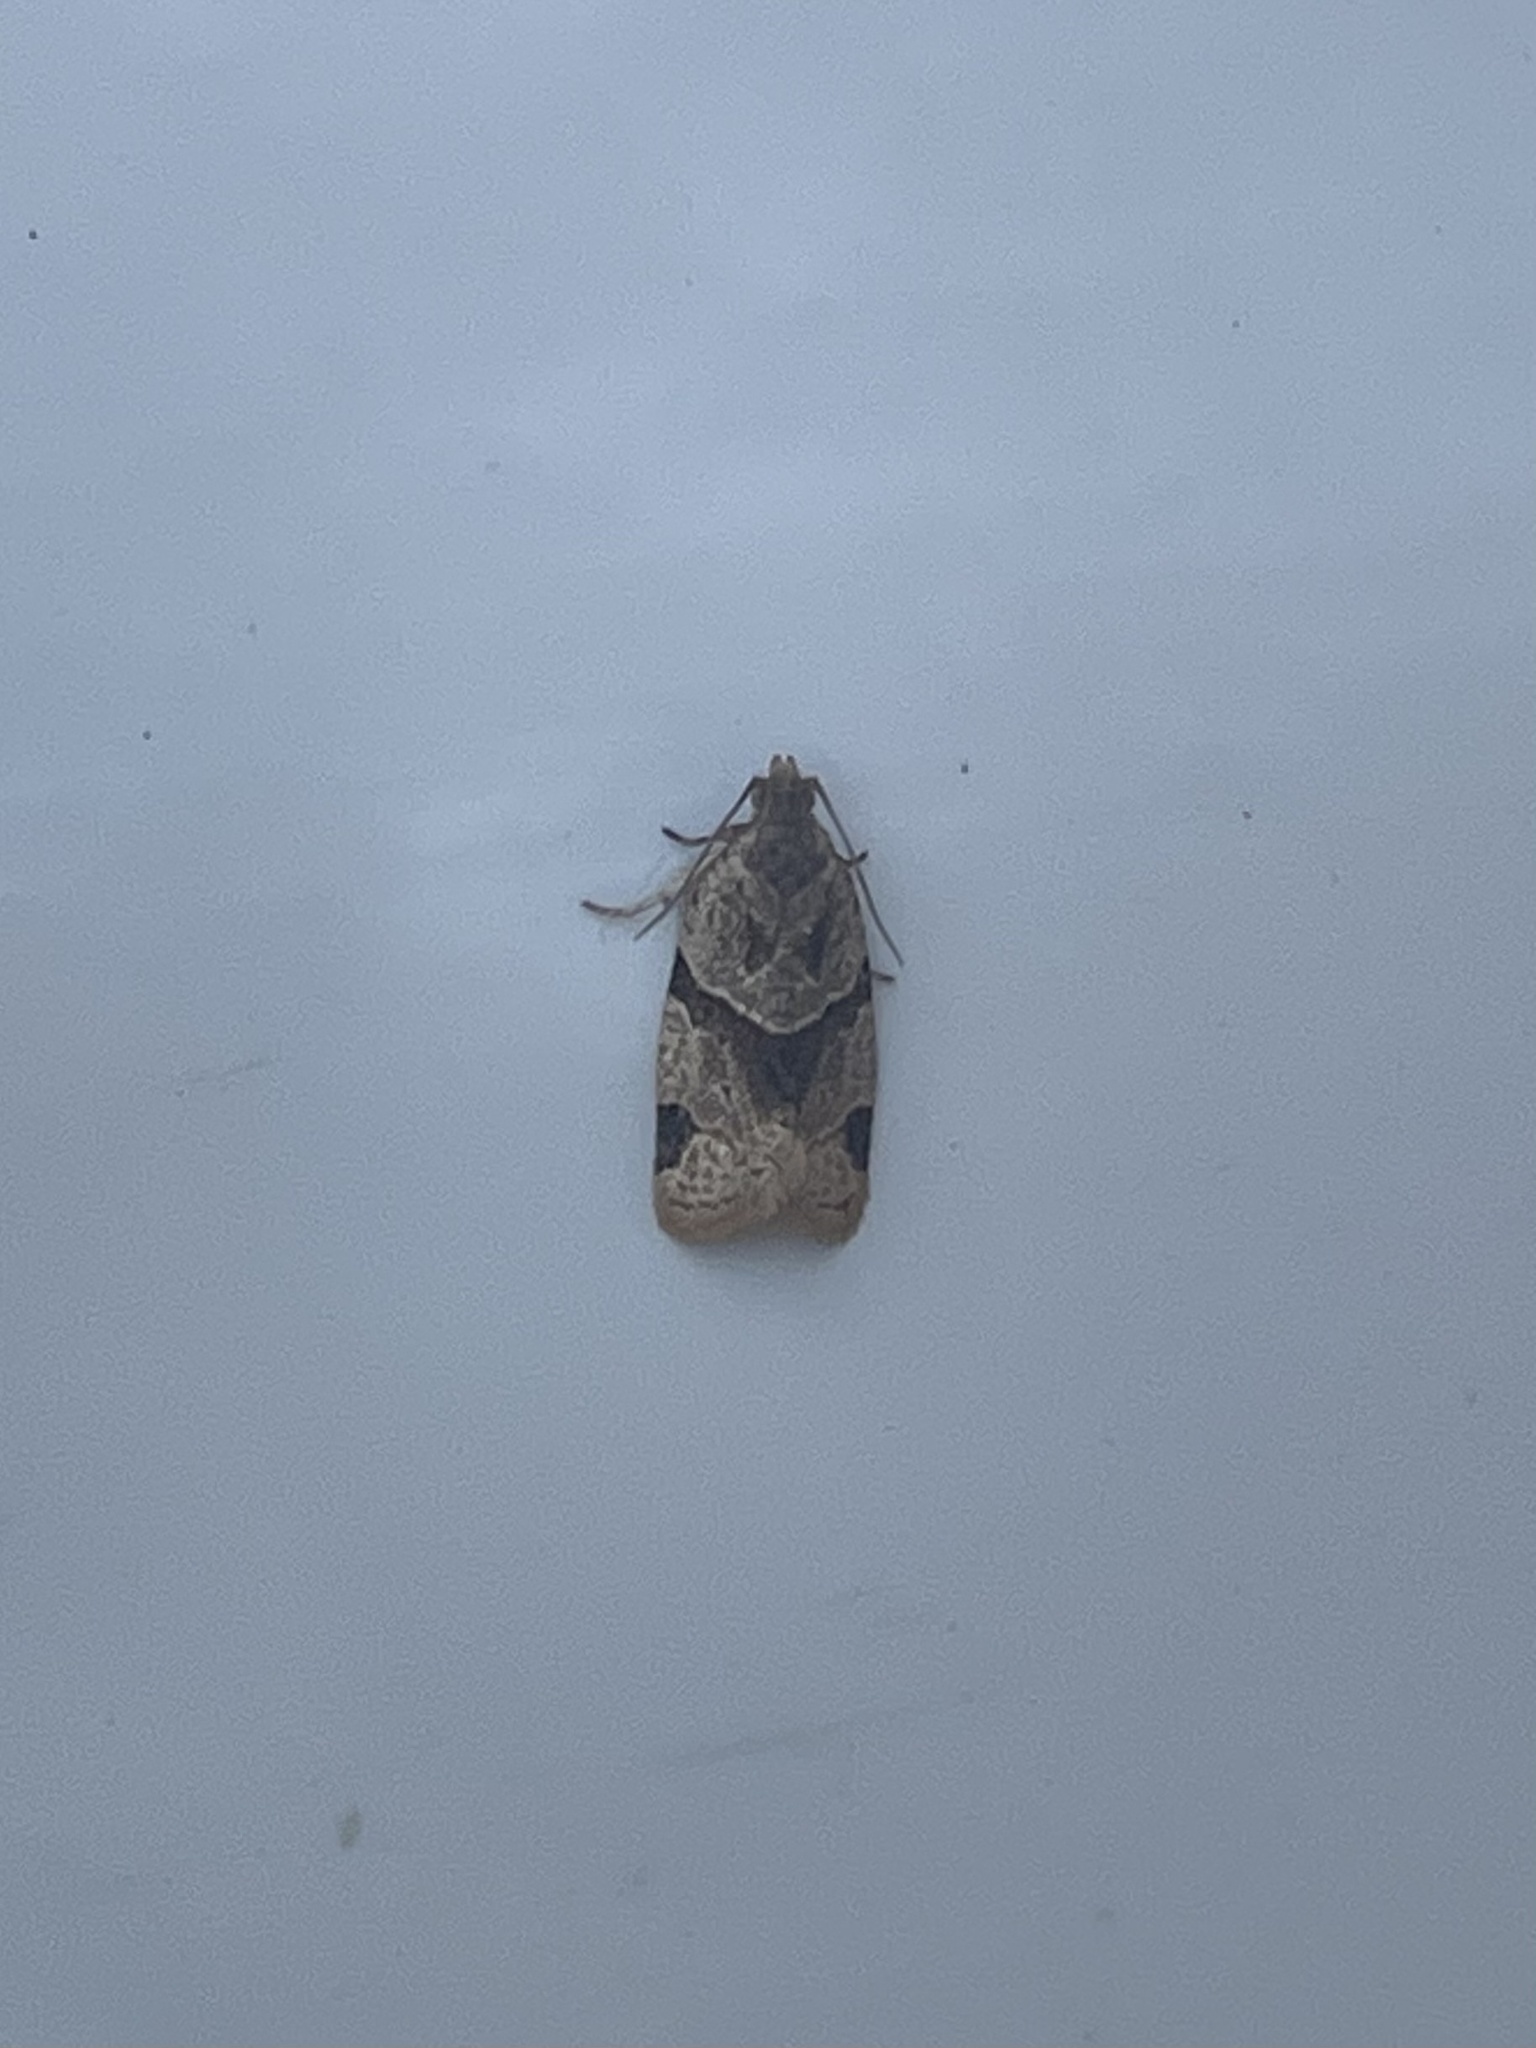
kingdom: Animalia
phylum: Arthropoda
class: Insecta
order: Lepidoptera
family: Tortricidae
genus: Clepsis
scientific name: Clepsis peritana
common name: Garden tortrix
